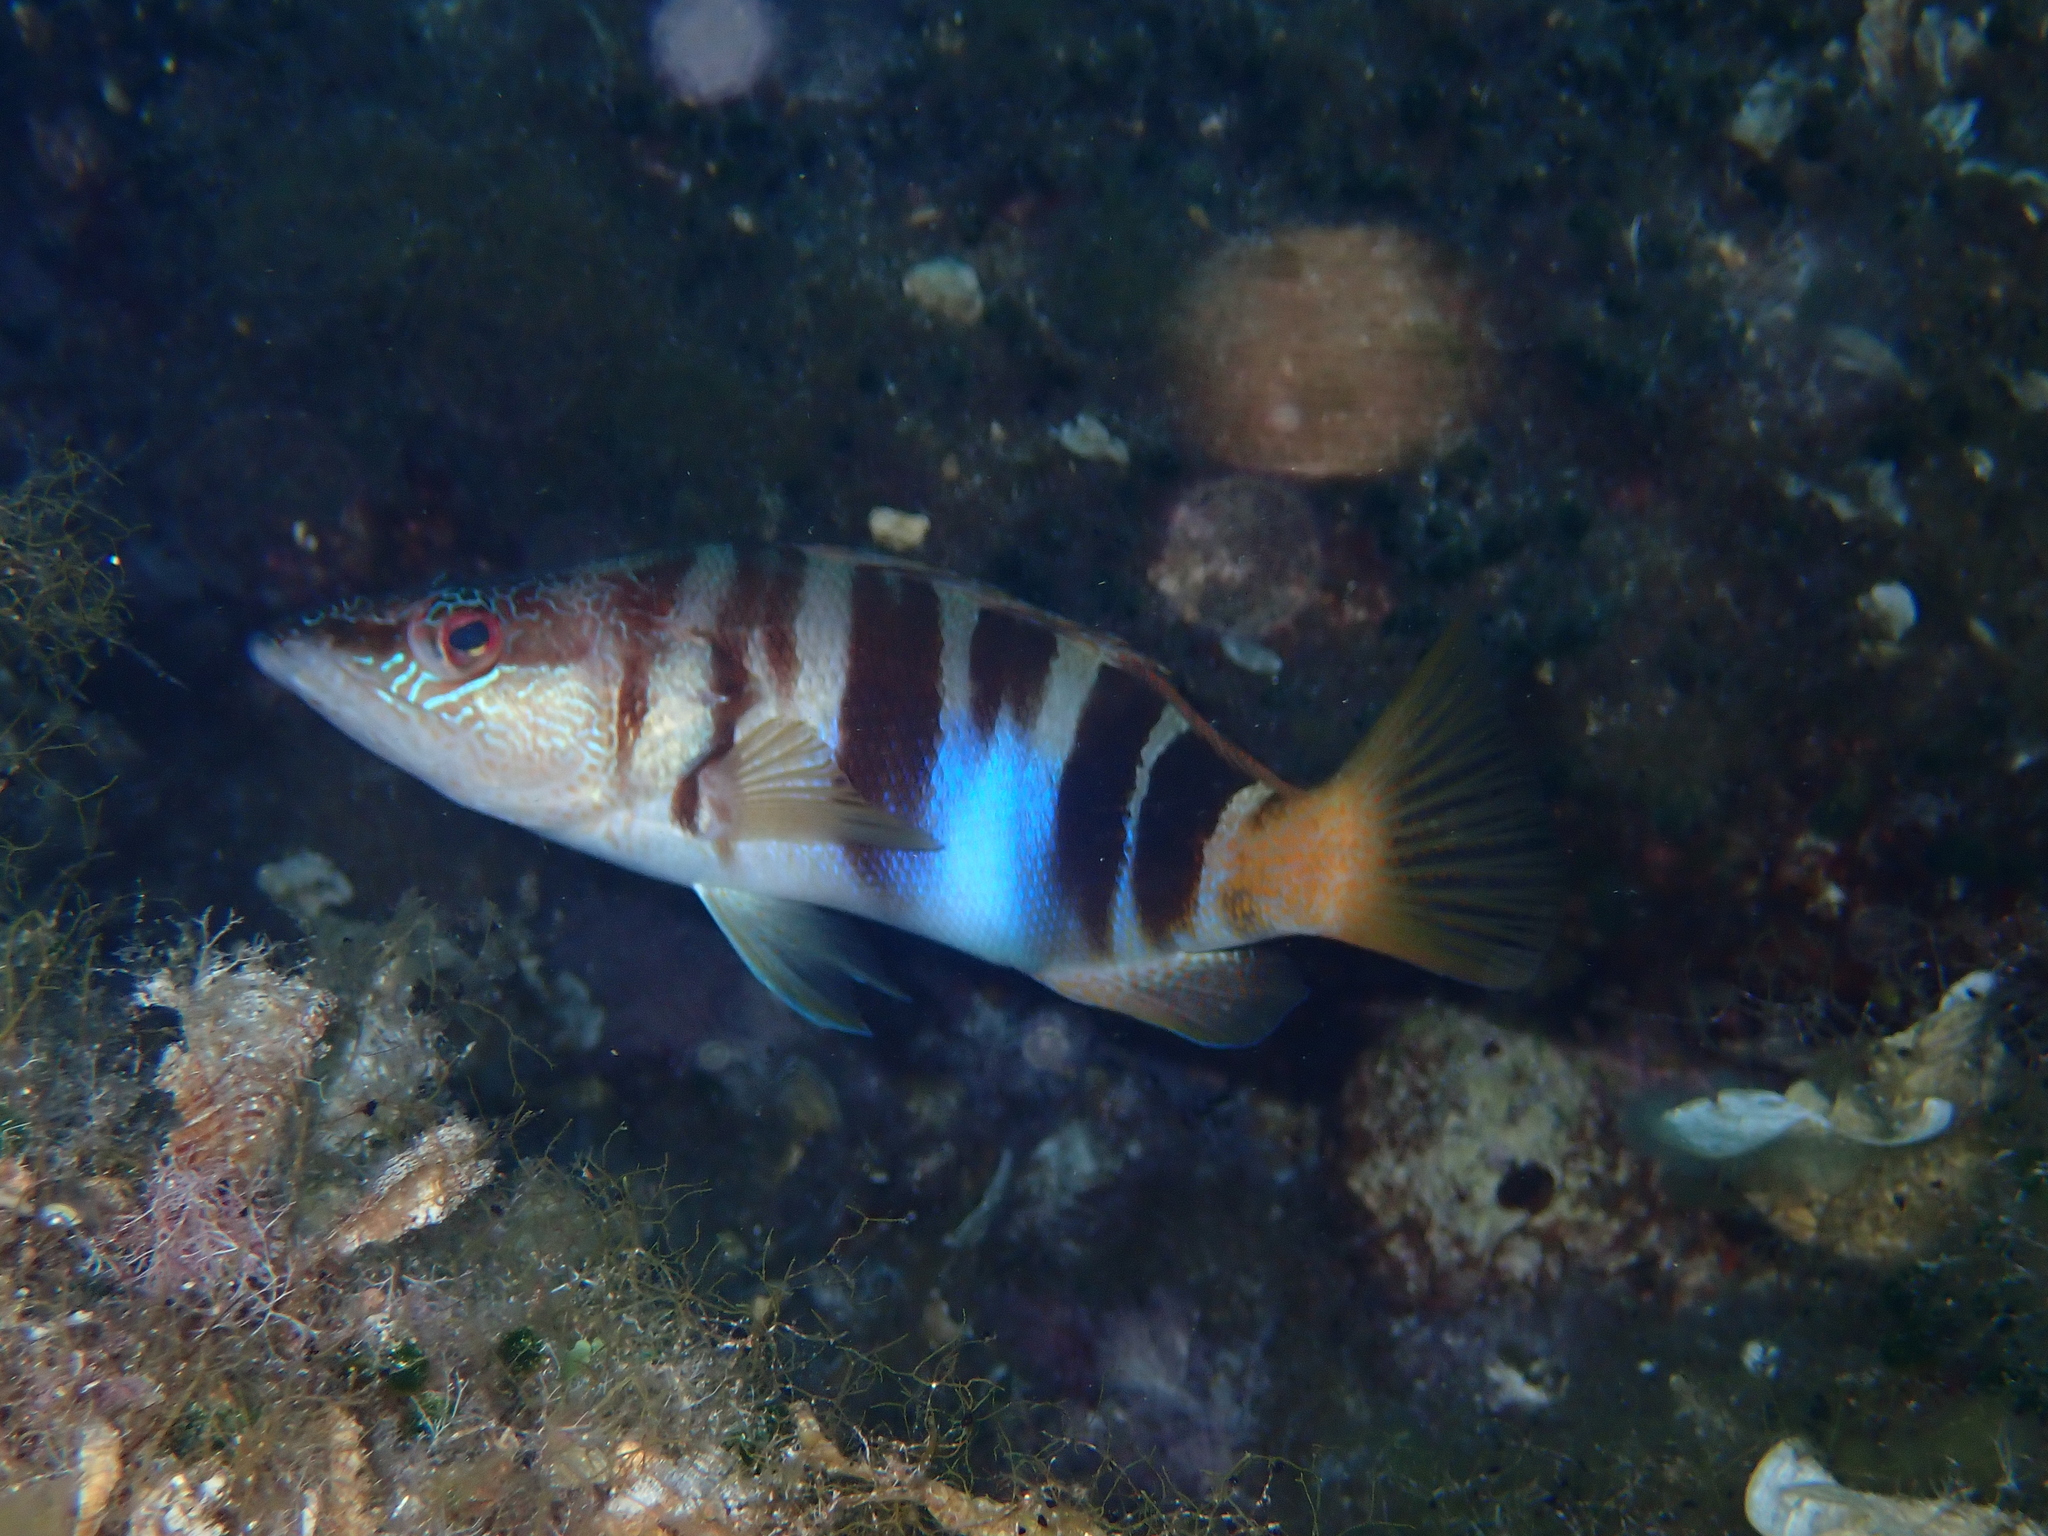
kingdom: Animalia
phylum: Chordata
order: Perciformes
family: Serranidae
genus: Serranus
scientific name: Serranus scriba
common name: Painted comber
